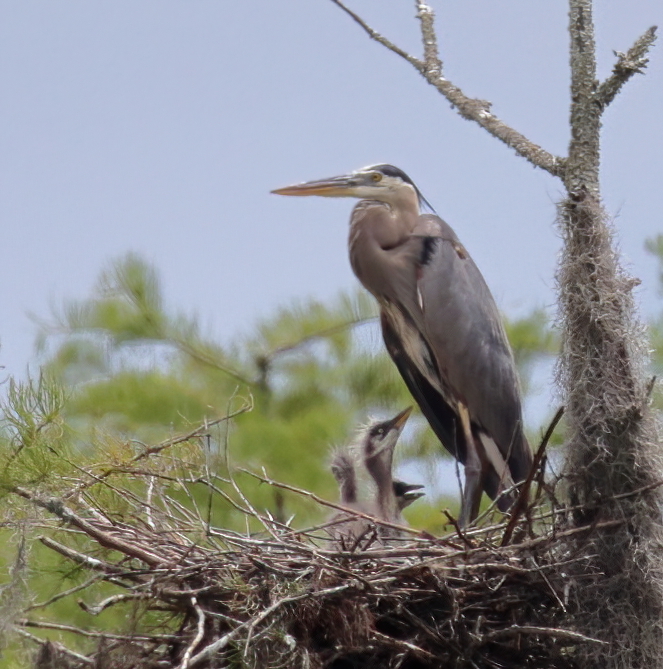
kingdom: Animalia
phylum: Chordata
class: Aves
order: Pelecaniformes
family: Ardeidae
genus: Ardea
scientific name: Ardea herodias
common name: Great blue heron
